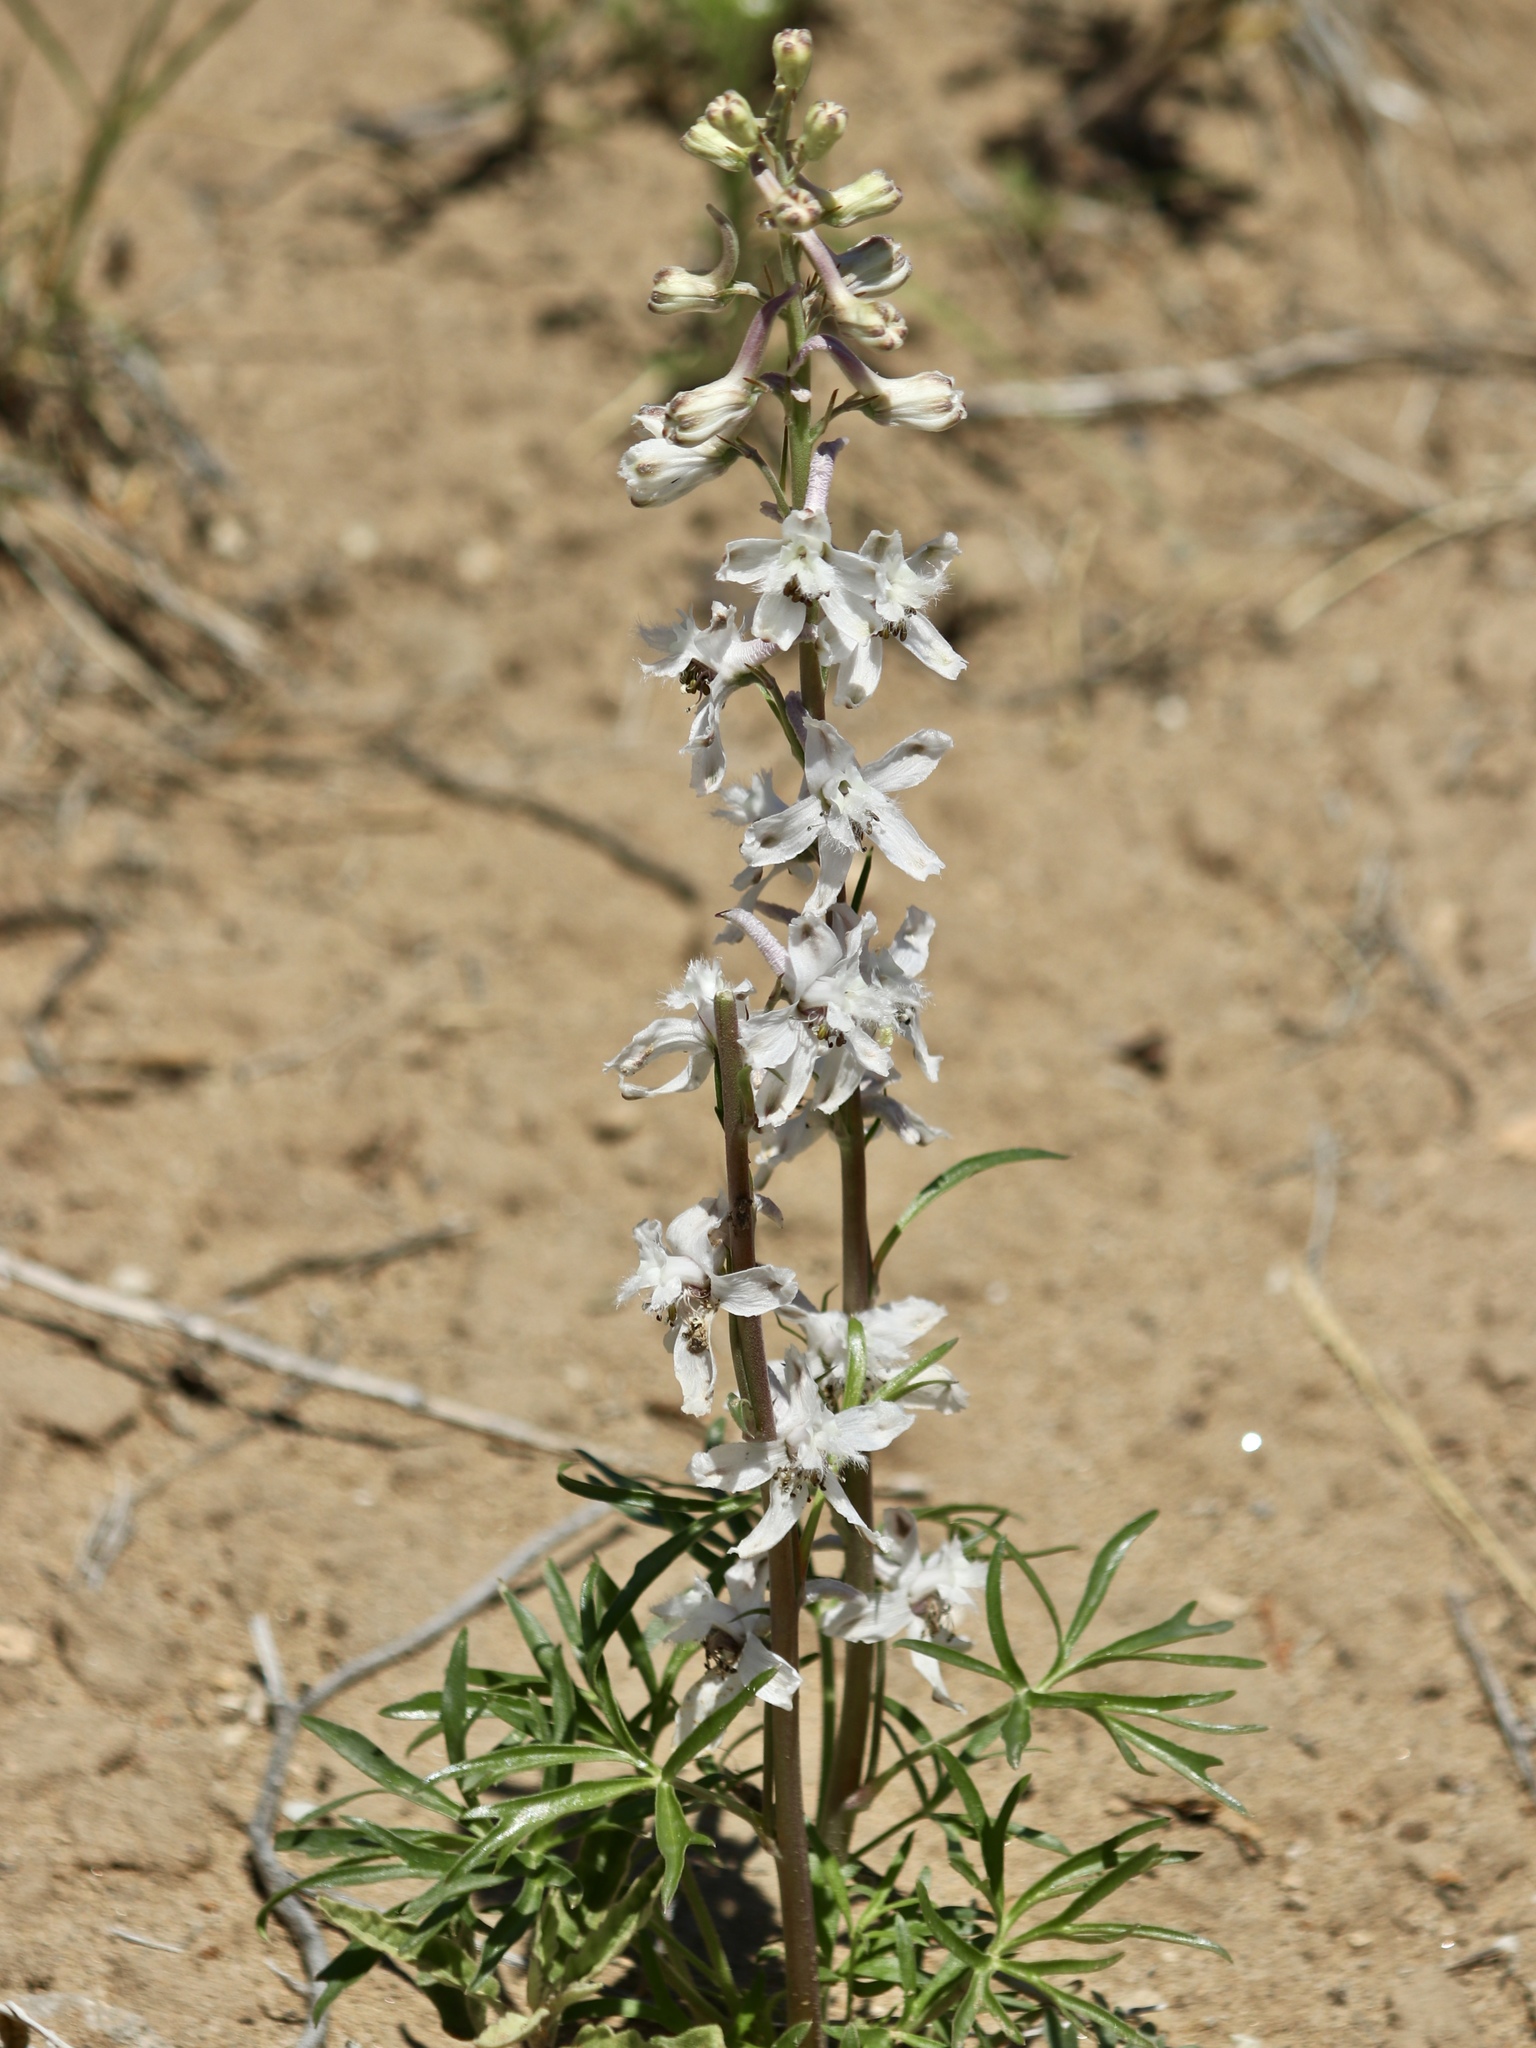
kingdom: Plantae
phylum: Tracheophyta
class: Magnoliopsida
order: Ranunculales
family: Ranunculaceae
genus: Delphinium
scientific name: Delphinium carolinianum
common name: Carolina larkspur
